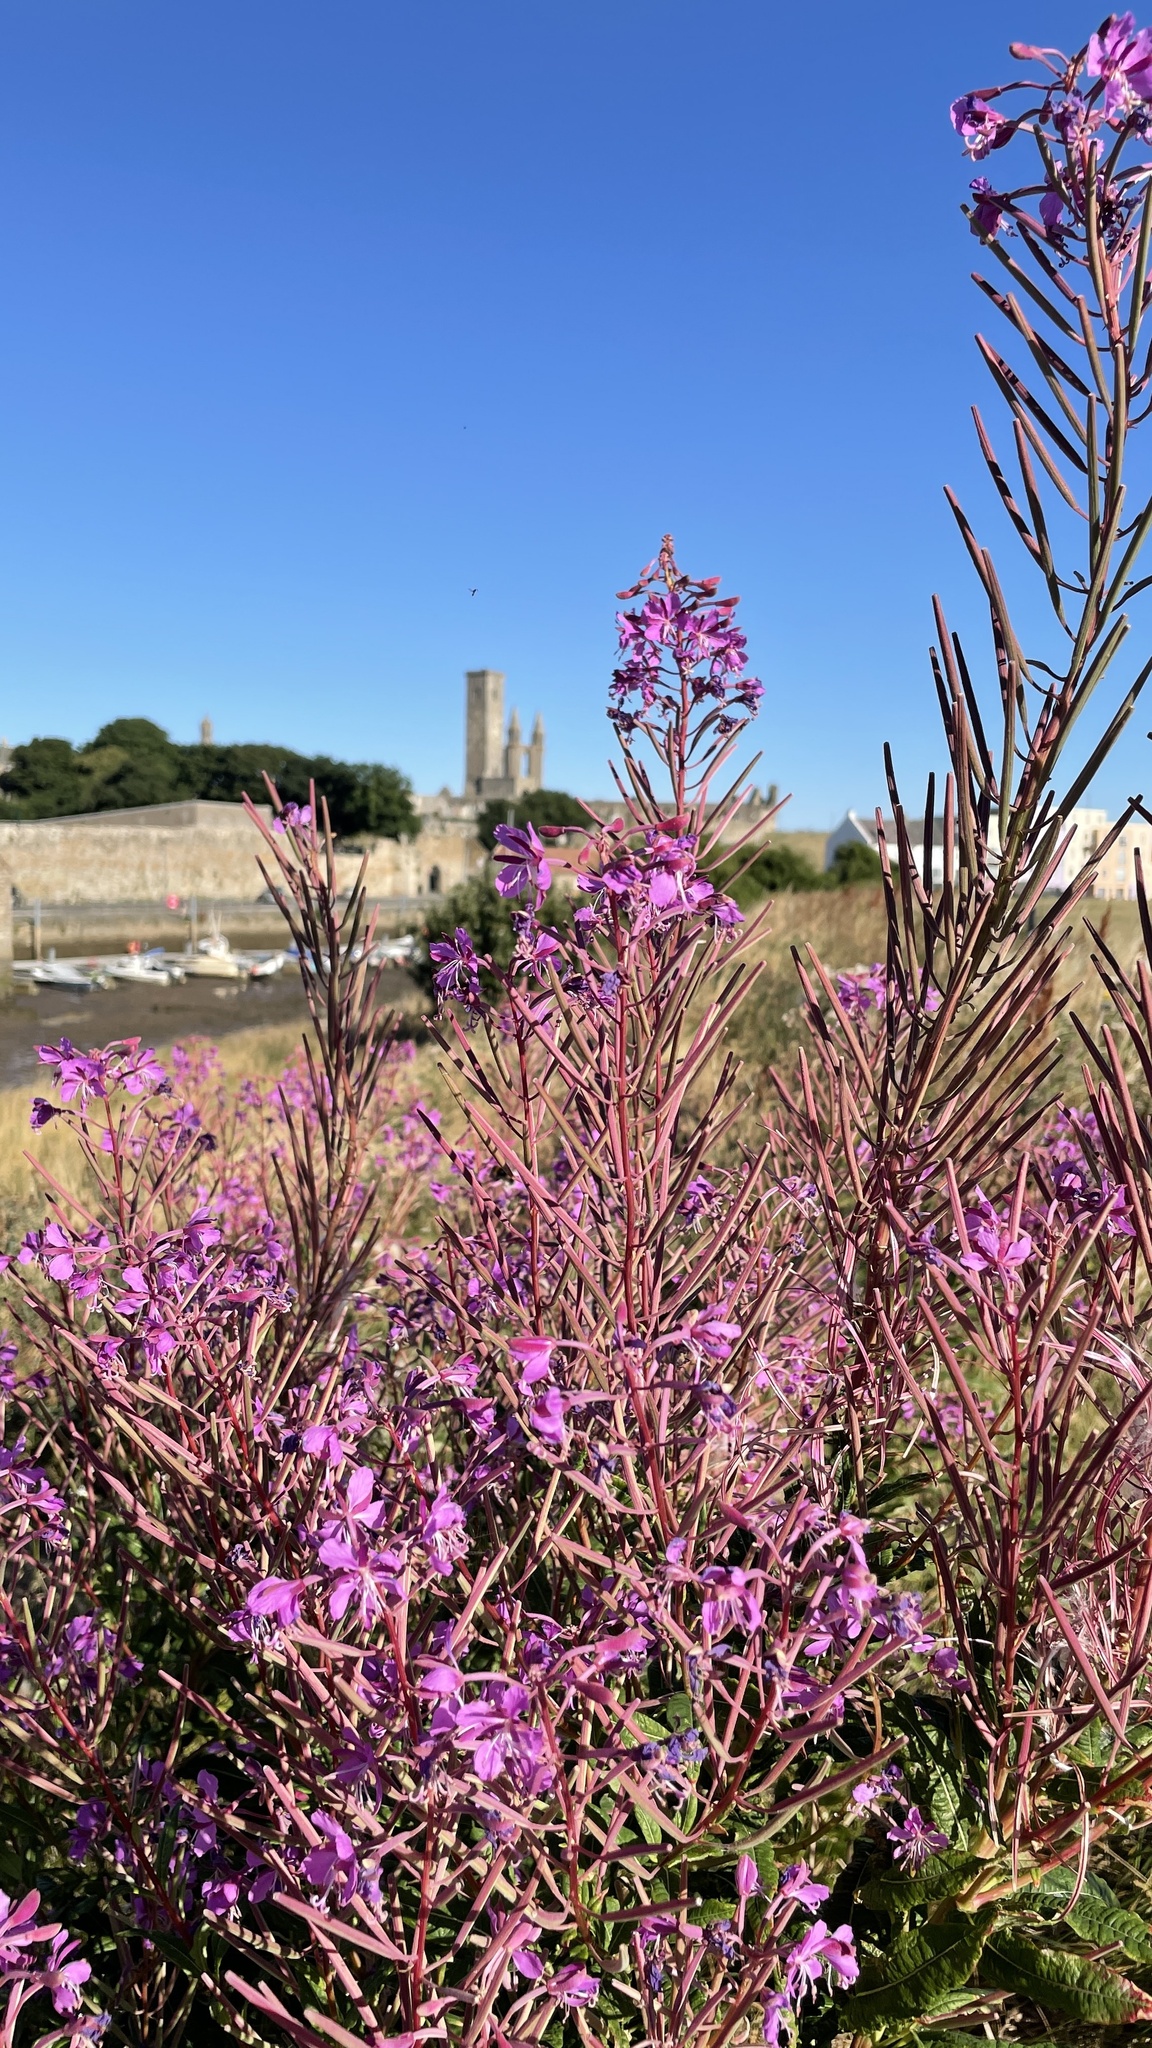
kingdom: Plantae
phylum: Tracheophyta
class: Magnoliopsida
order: Myrtales
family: Onagraceae
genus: Chamaenerion
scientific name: Chamaenerion angustifolium
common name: Fireweed
